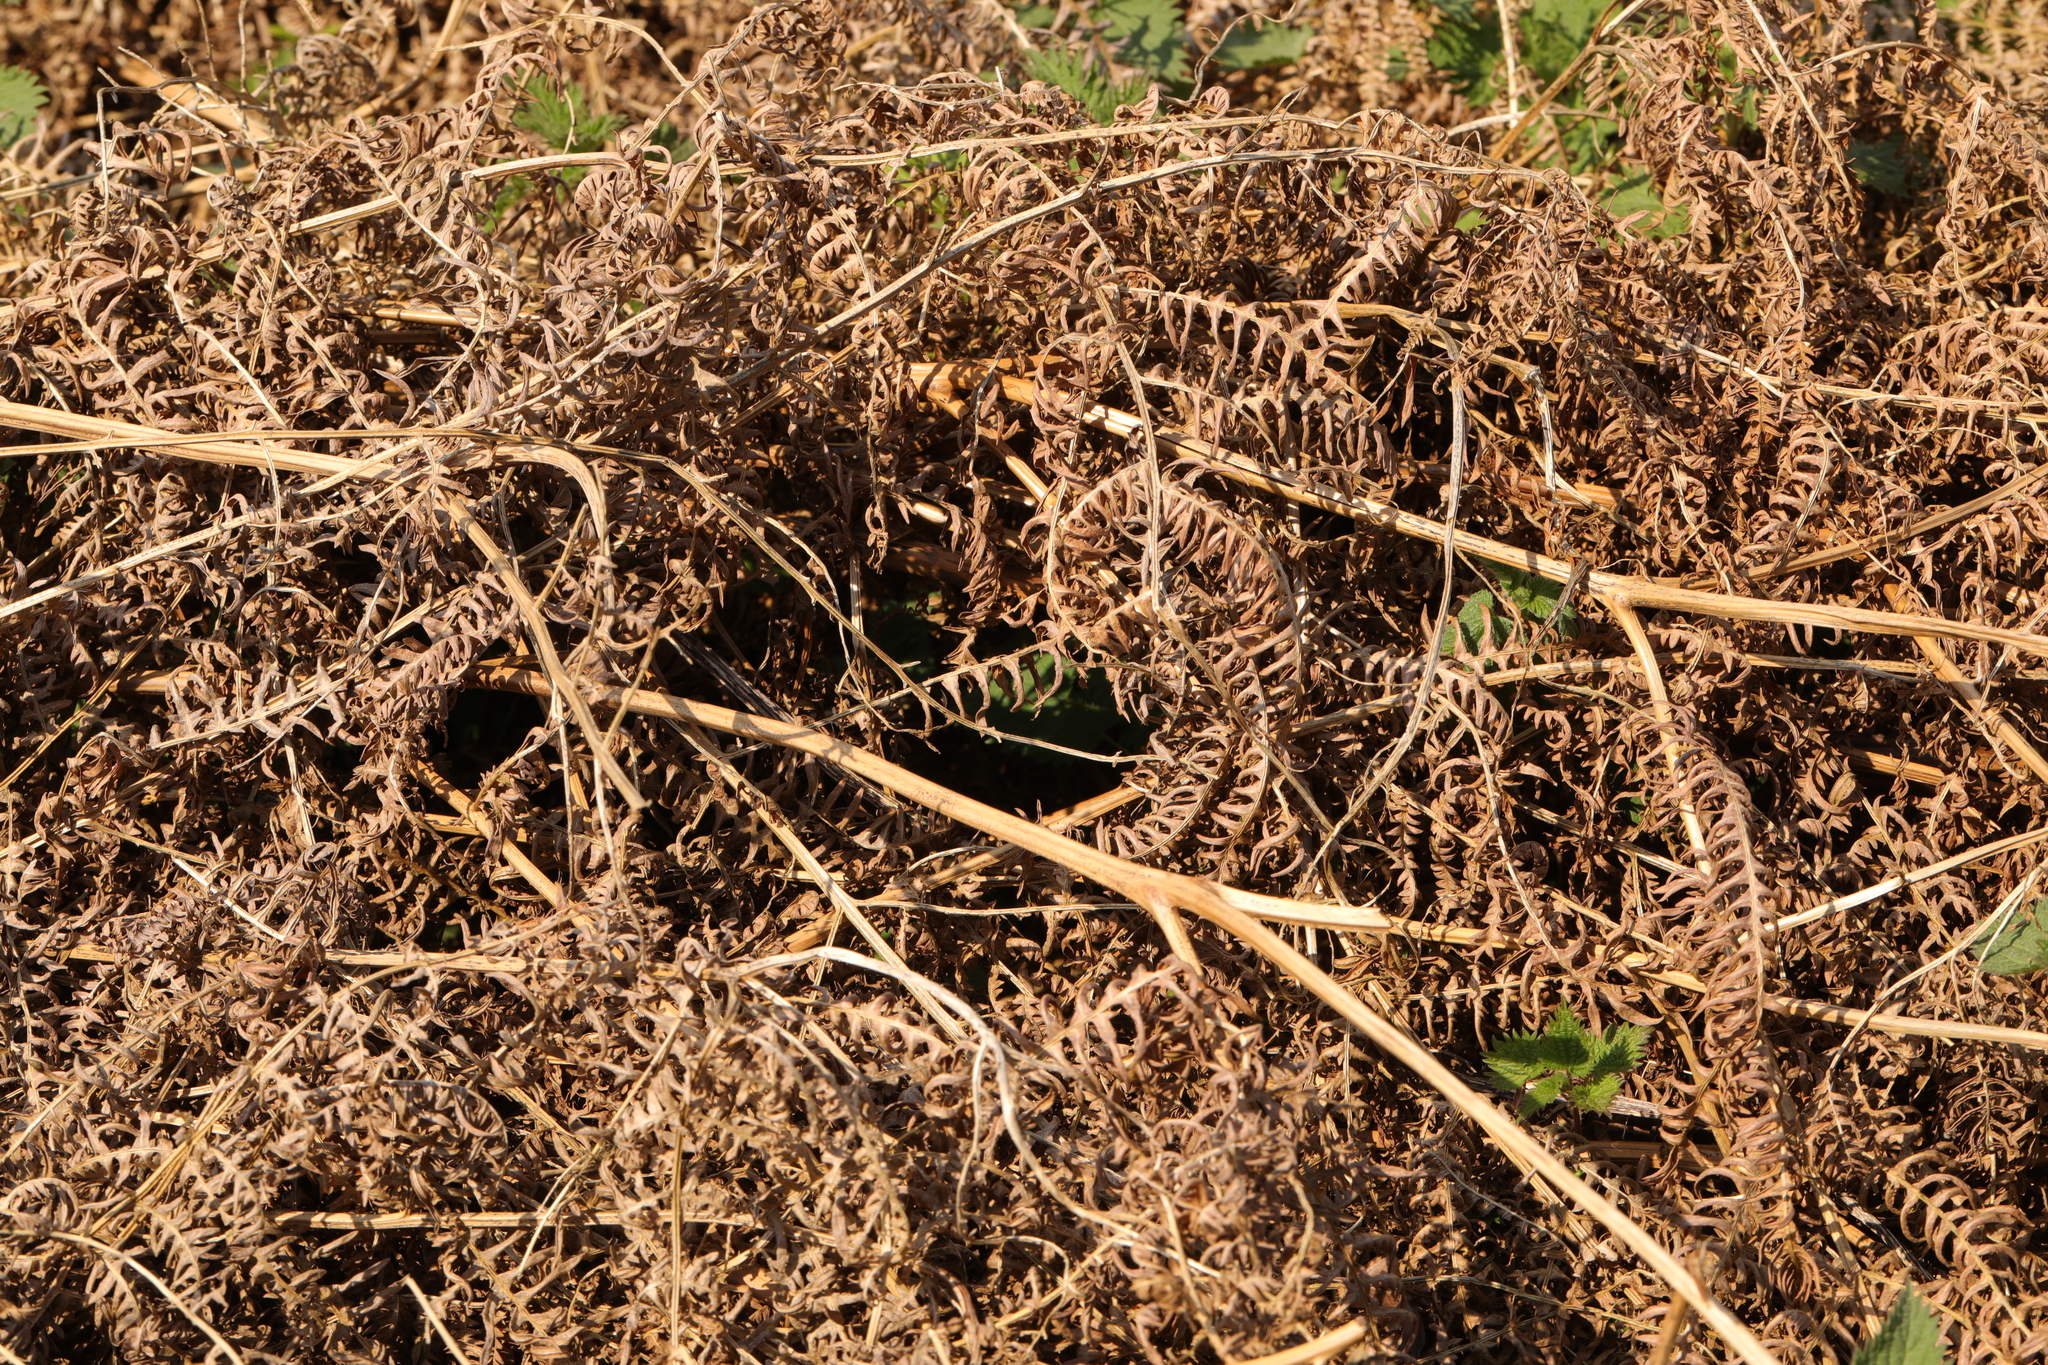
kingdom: Plantae
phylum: Tracheophyta
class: Polypodiopsida
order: Polypodiales
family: Dennstaedtiaceae
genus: Pteridium
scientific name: Pteridium aquilinum
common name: Bracken
